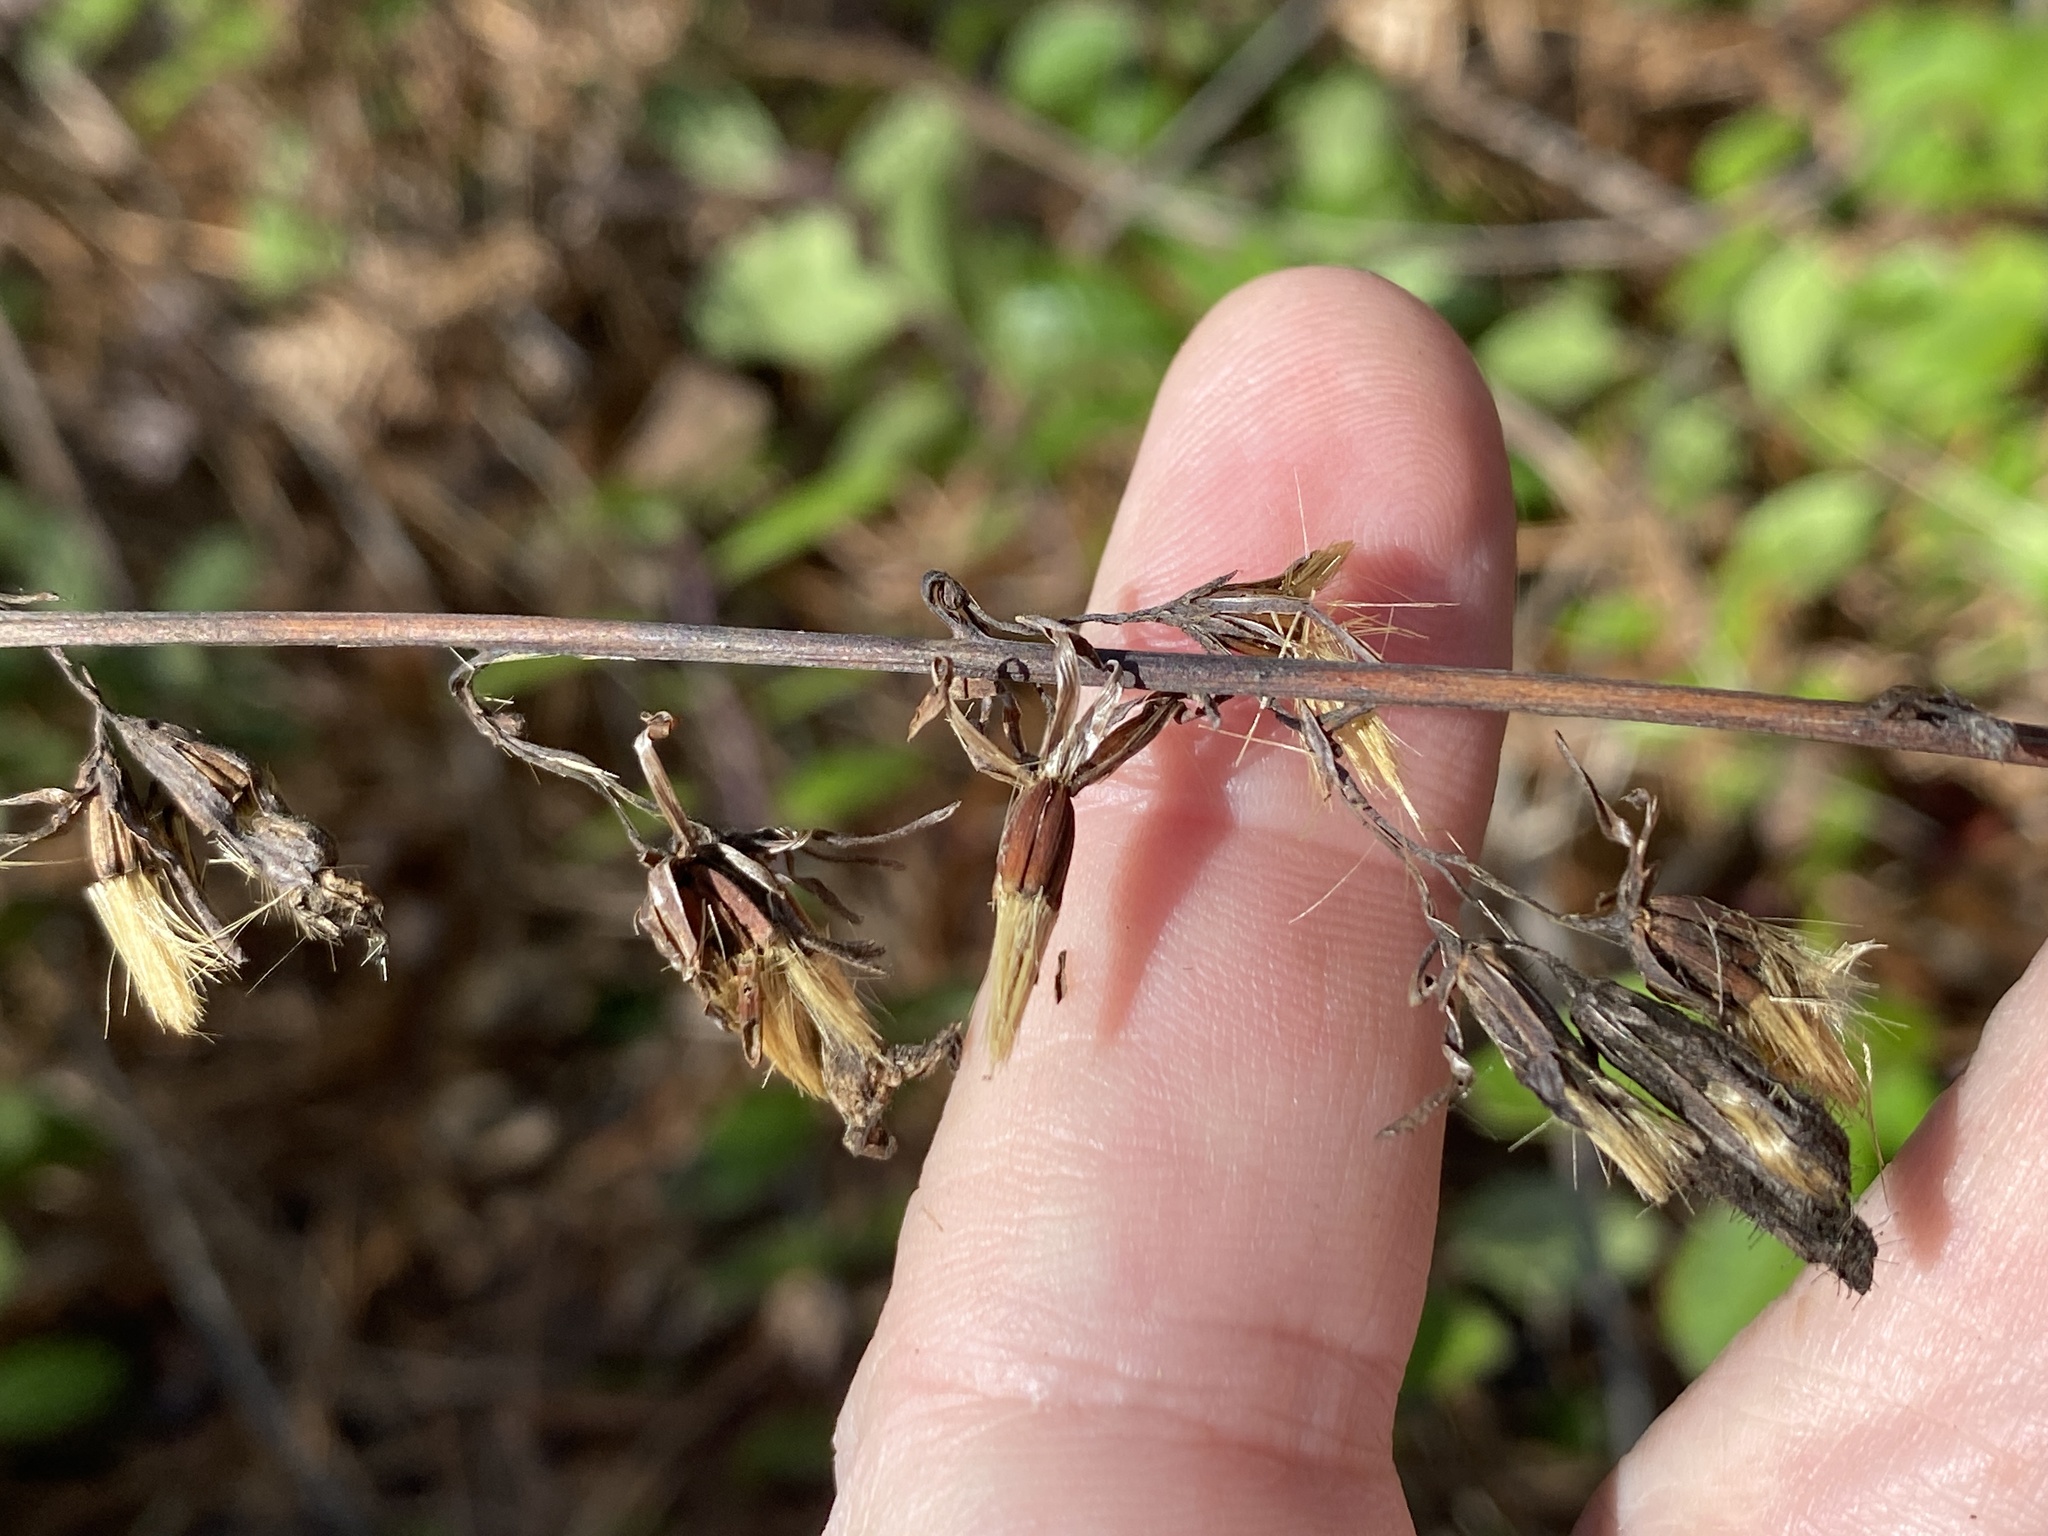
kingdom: Plantae
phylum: Tracheophyta
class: Magnoliopsida
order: Asterales
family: Asteraceae
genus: Nabalus
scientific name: Nabalus autumnalis
